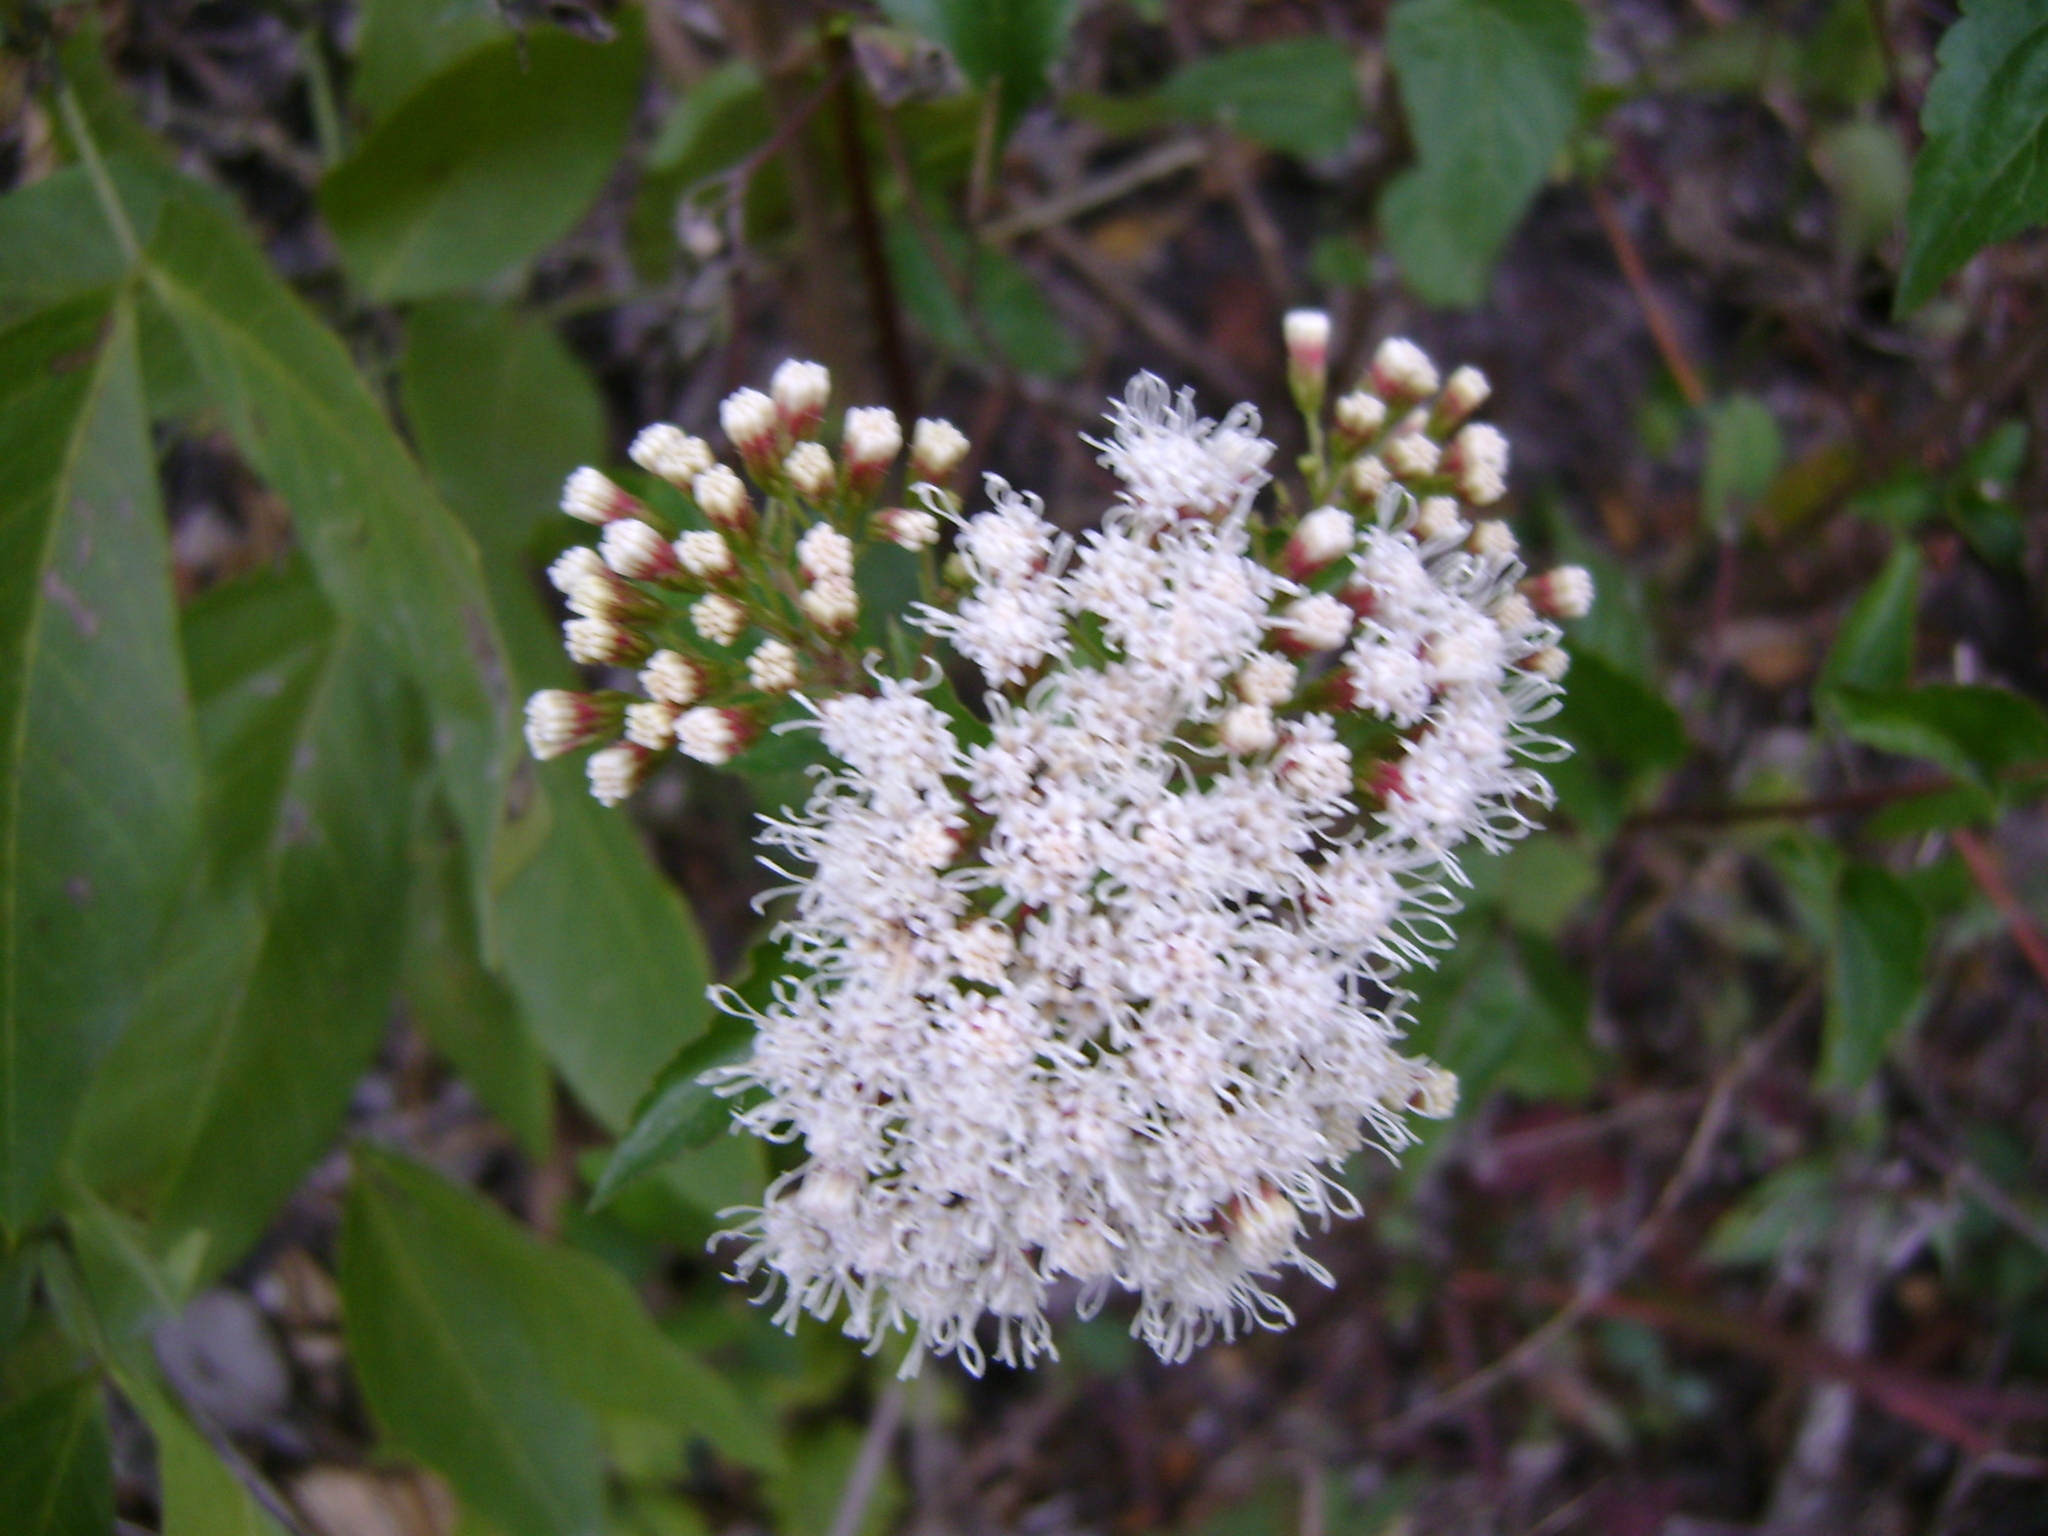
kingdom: Plantae
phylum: Tracheophyta
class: Magnoliopsida
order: Asterales
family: Asteraceae
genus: Ageratina
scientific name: Ageratina ligustrina
